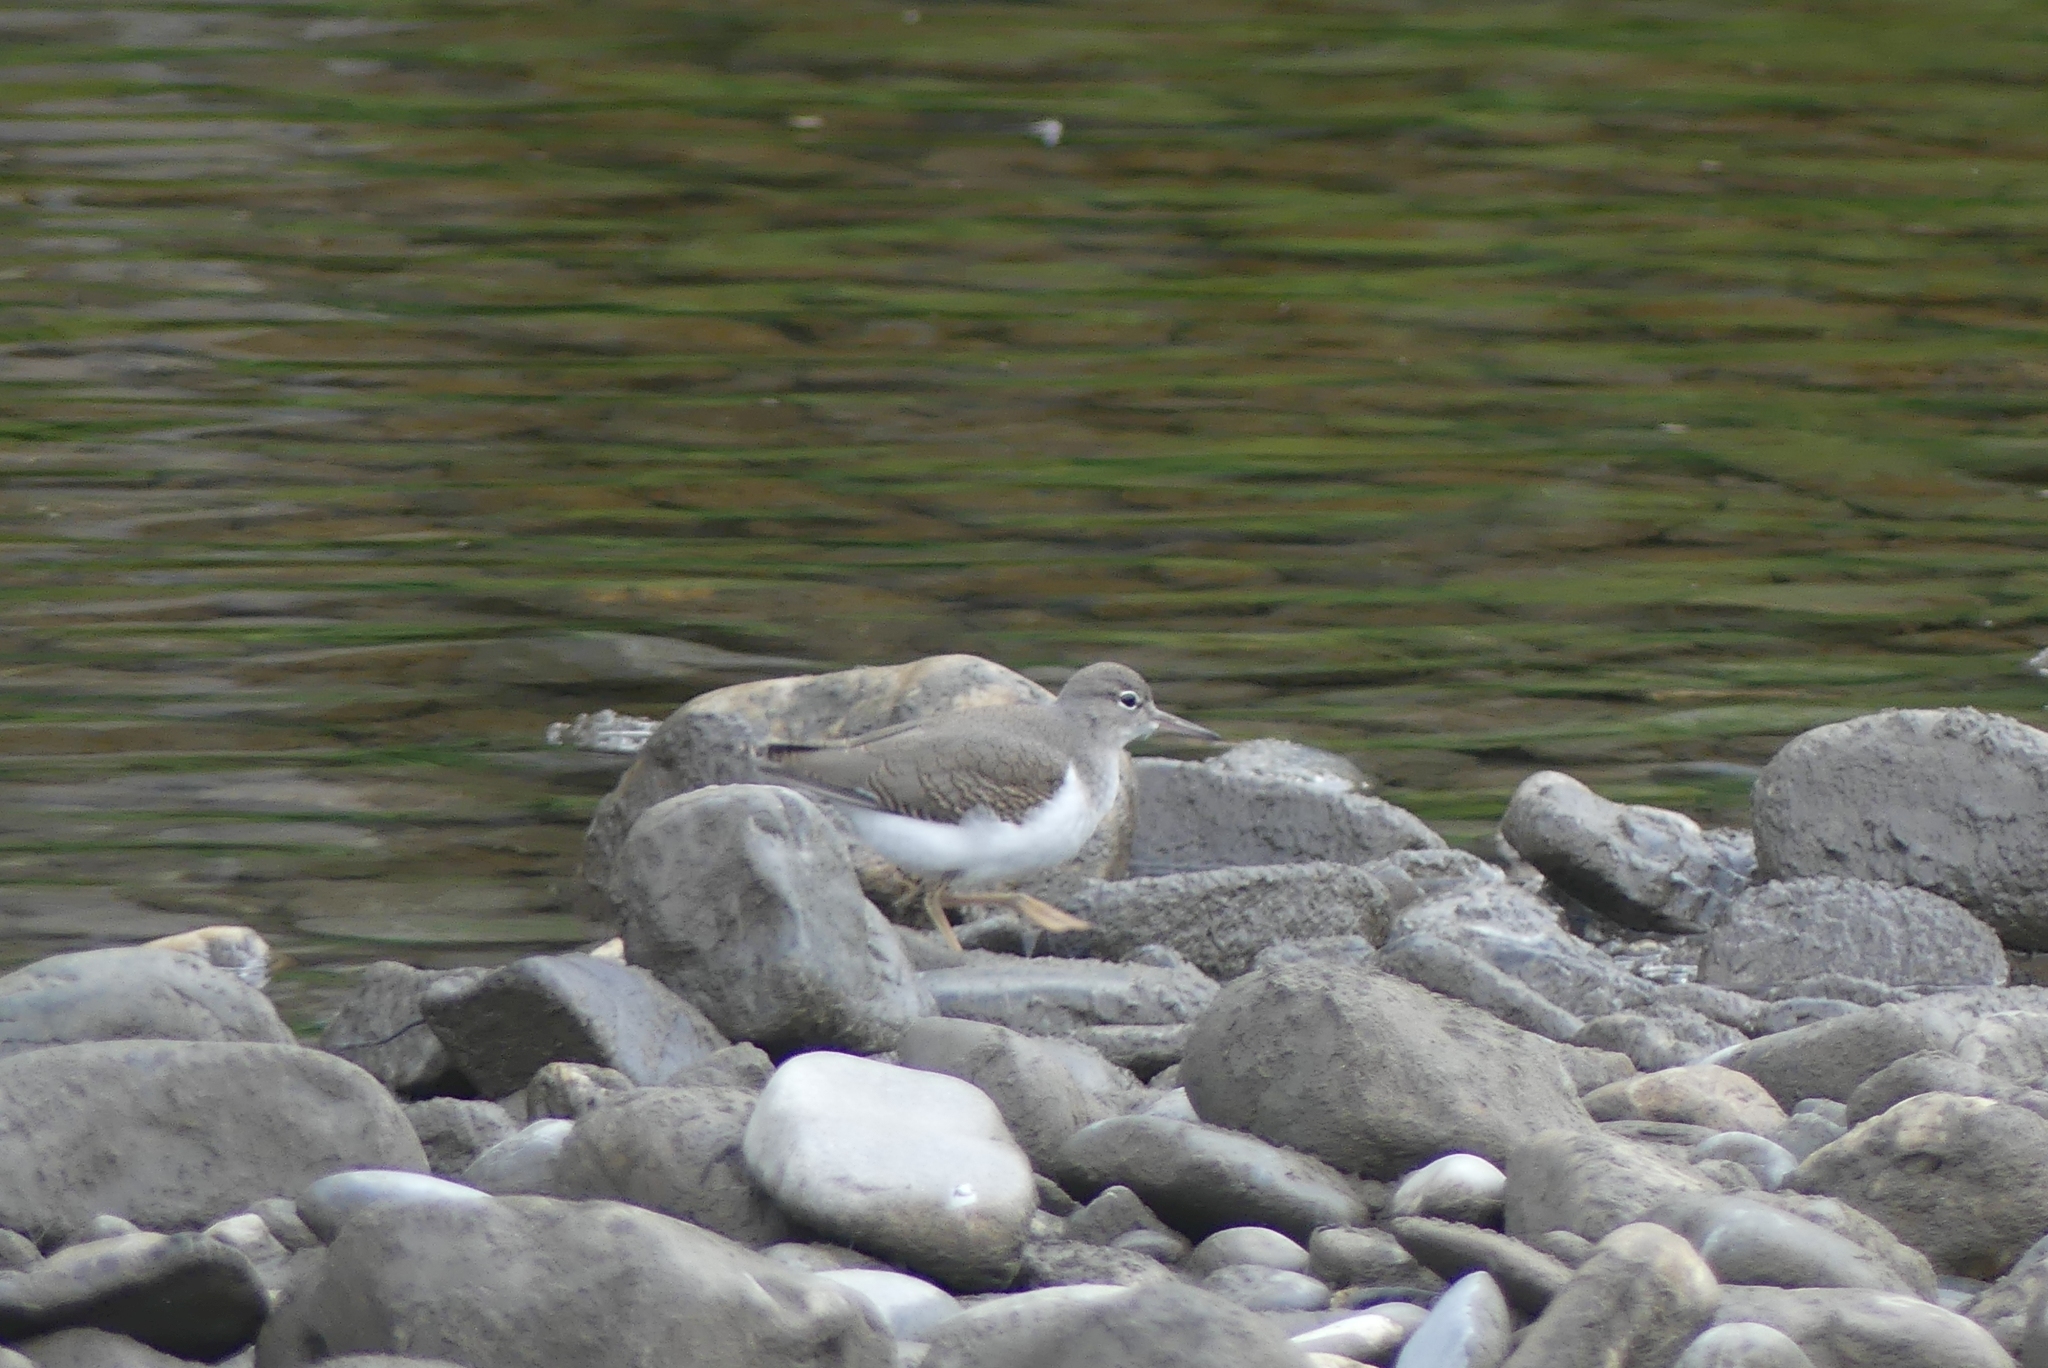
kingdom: Animalia
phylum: Chordata
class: Aves
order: Charadriiformes
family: Scolopacidae
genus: Actitis
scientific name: Actitis macularius
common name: Spotted sandpiper
